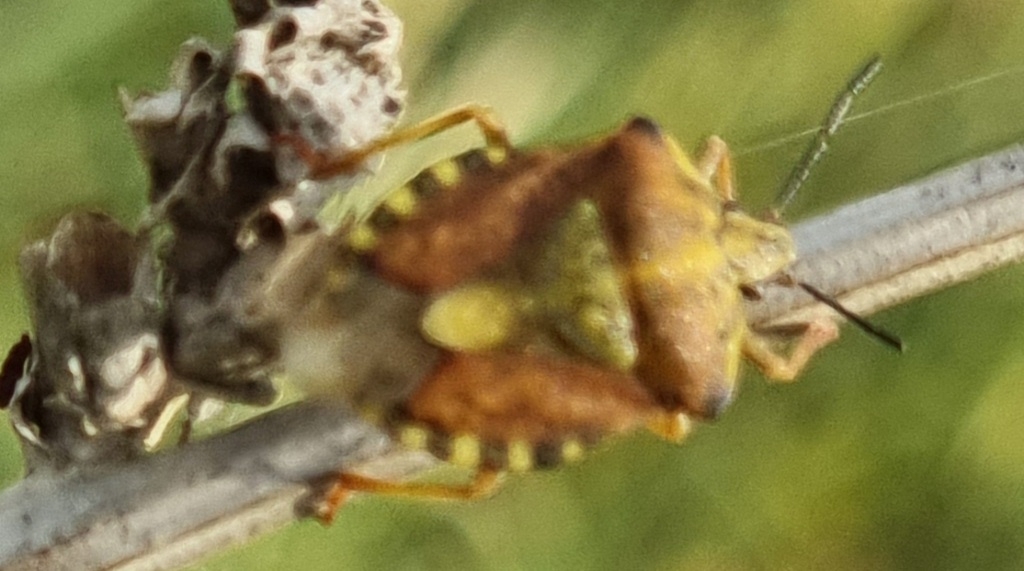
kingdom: Animalia
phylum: Arthropoda
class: Insecta
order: Hemiptera
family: Pentatomidae
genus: Carpocoris
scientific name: Carpocoris purpureipennis
